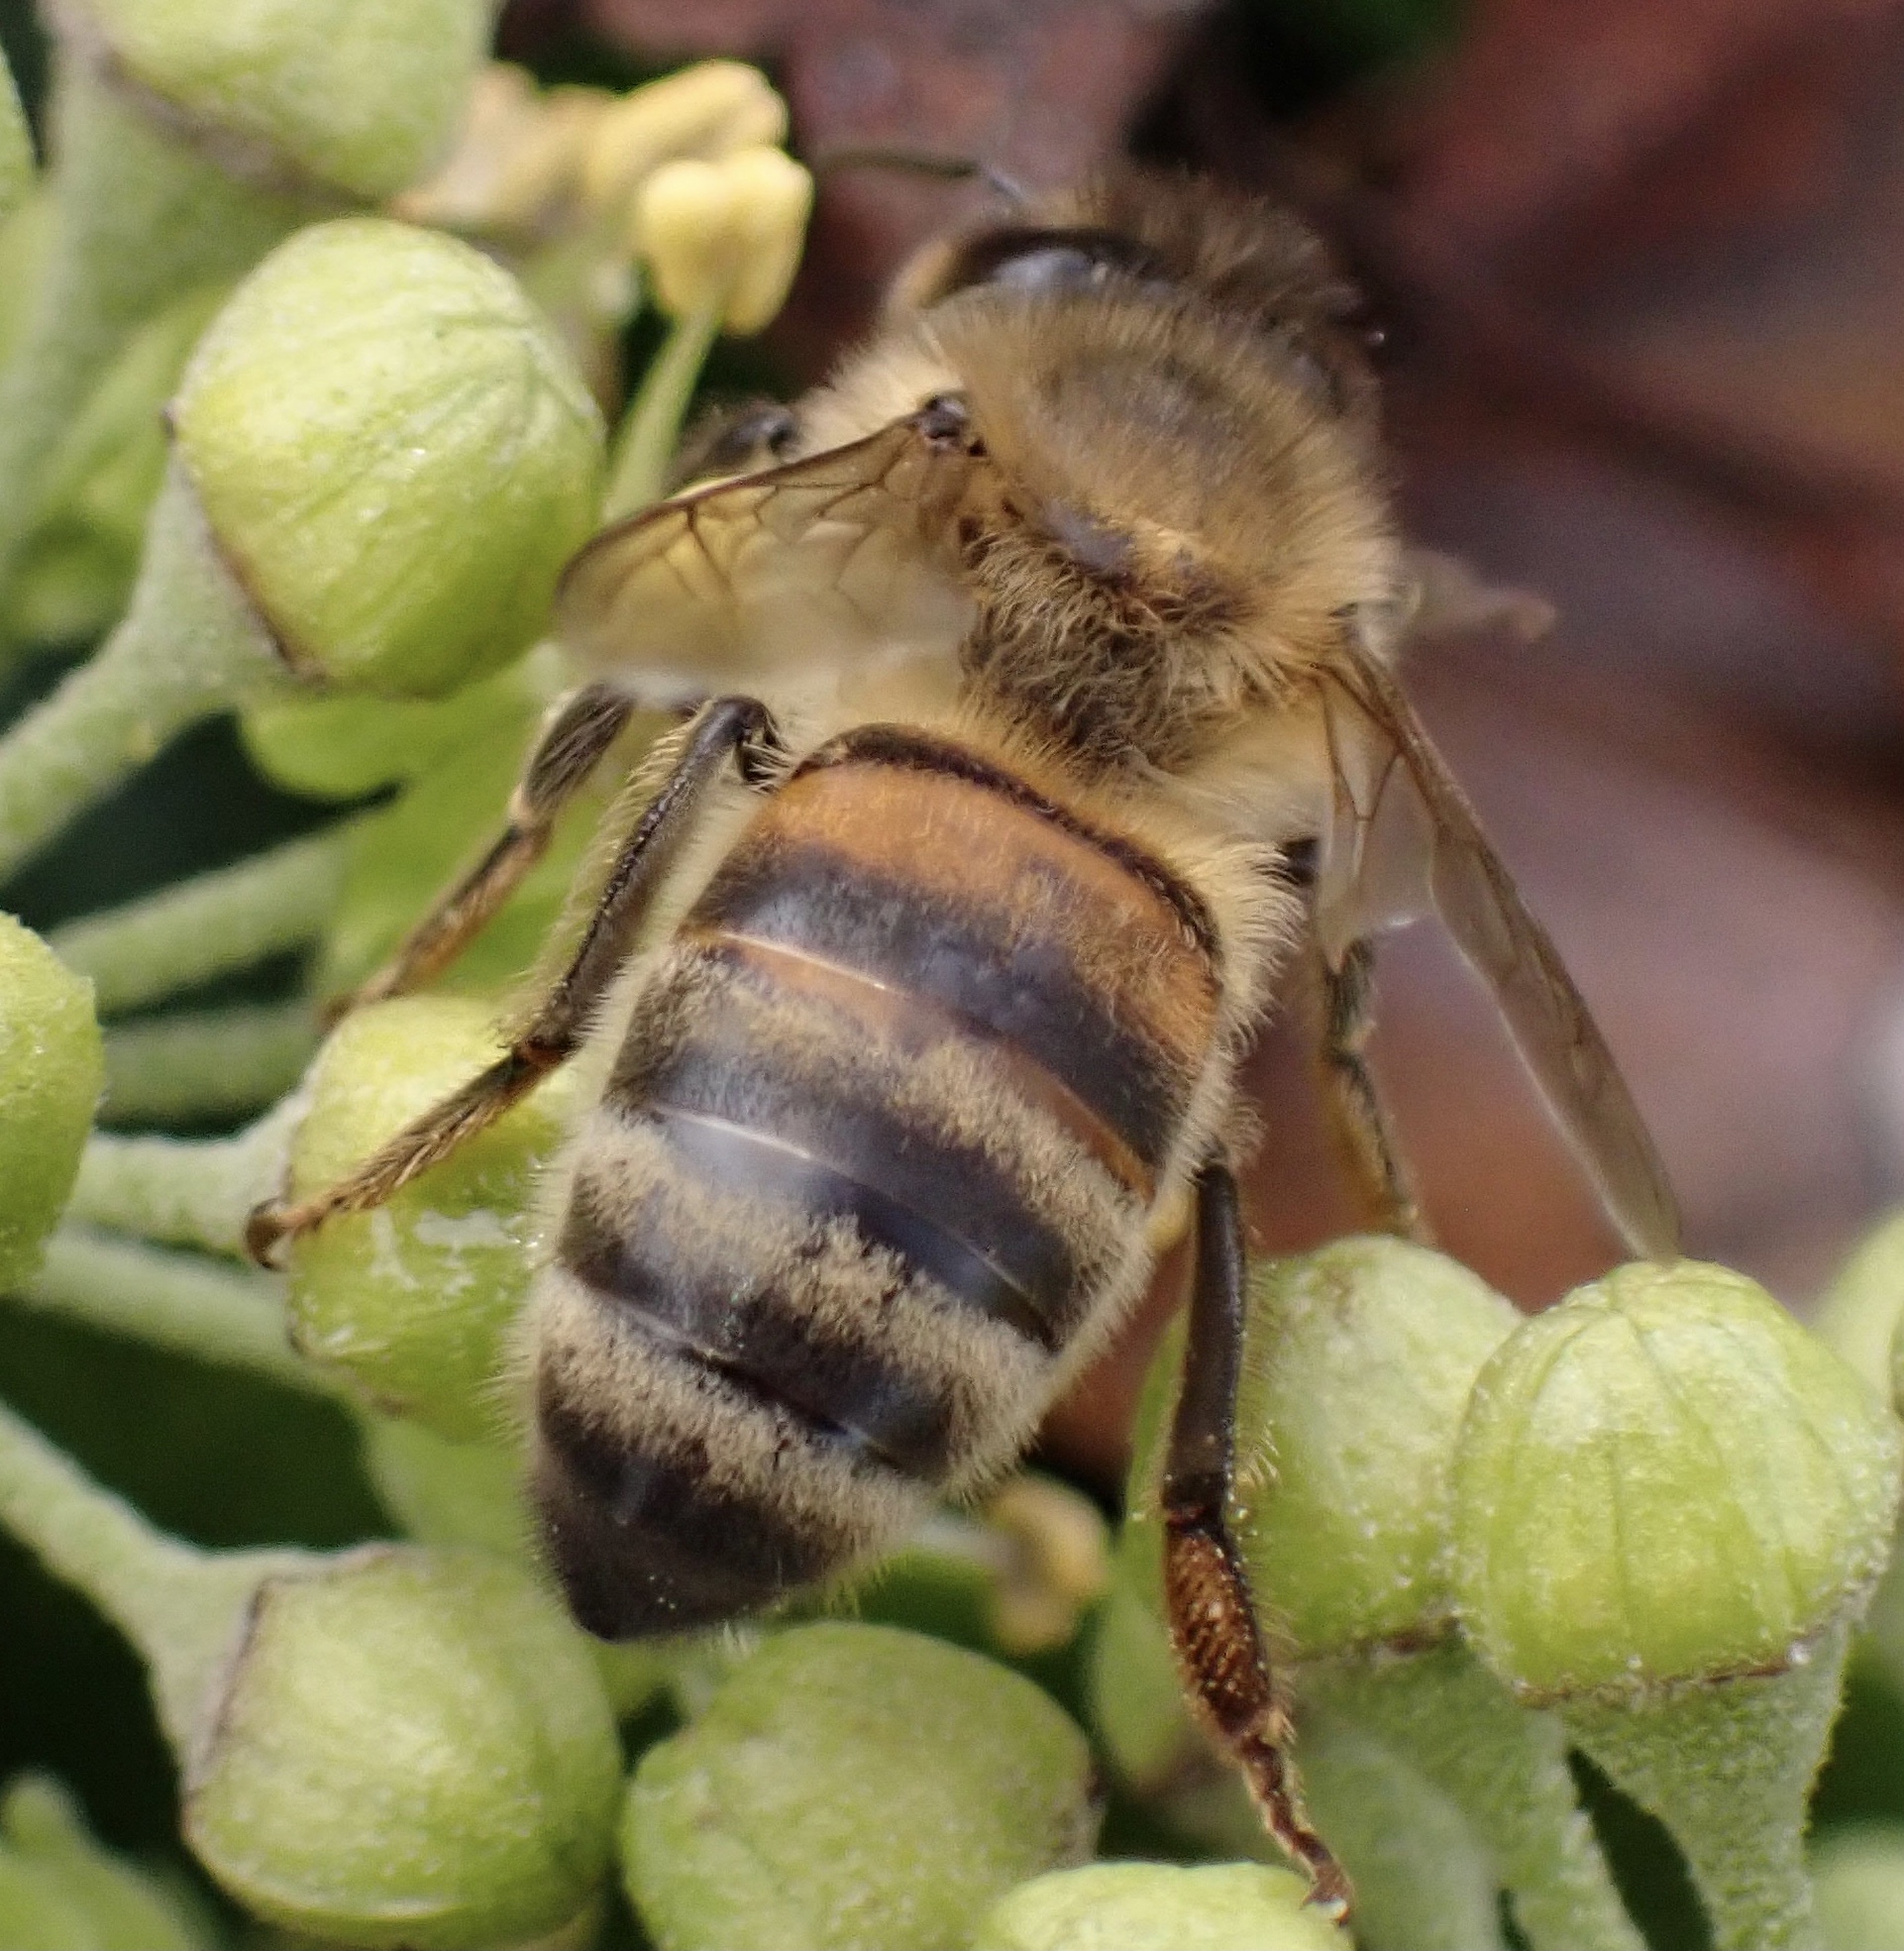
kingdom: Animalia
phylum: Arthropoda
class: Insecta
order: Hymenoptera
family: Apidae
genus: Apis
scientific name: Apis mellifera
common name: Honey bee
